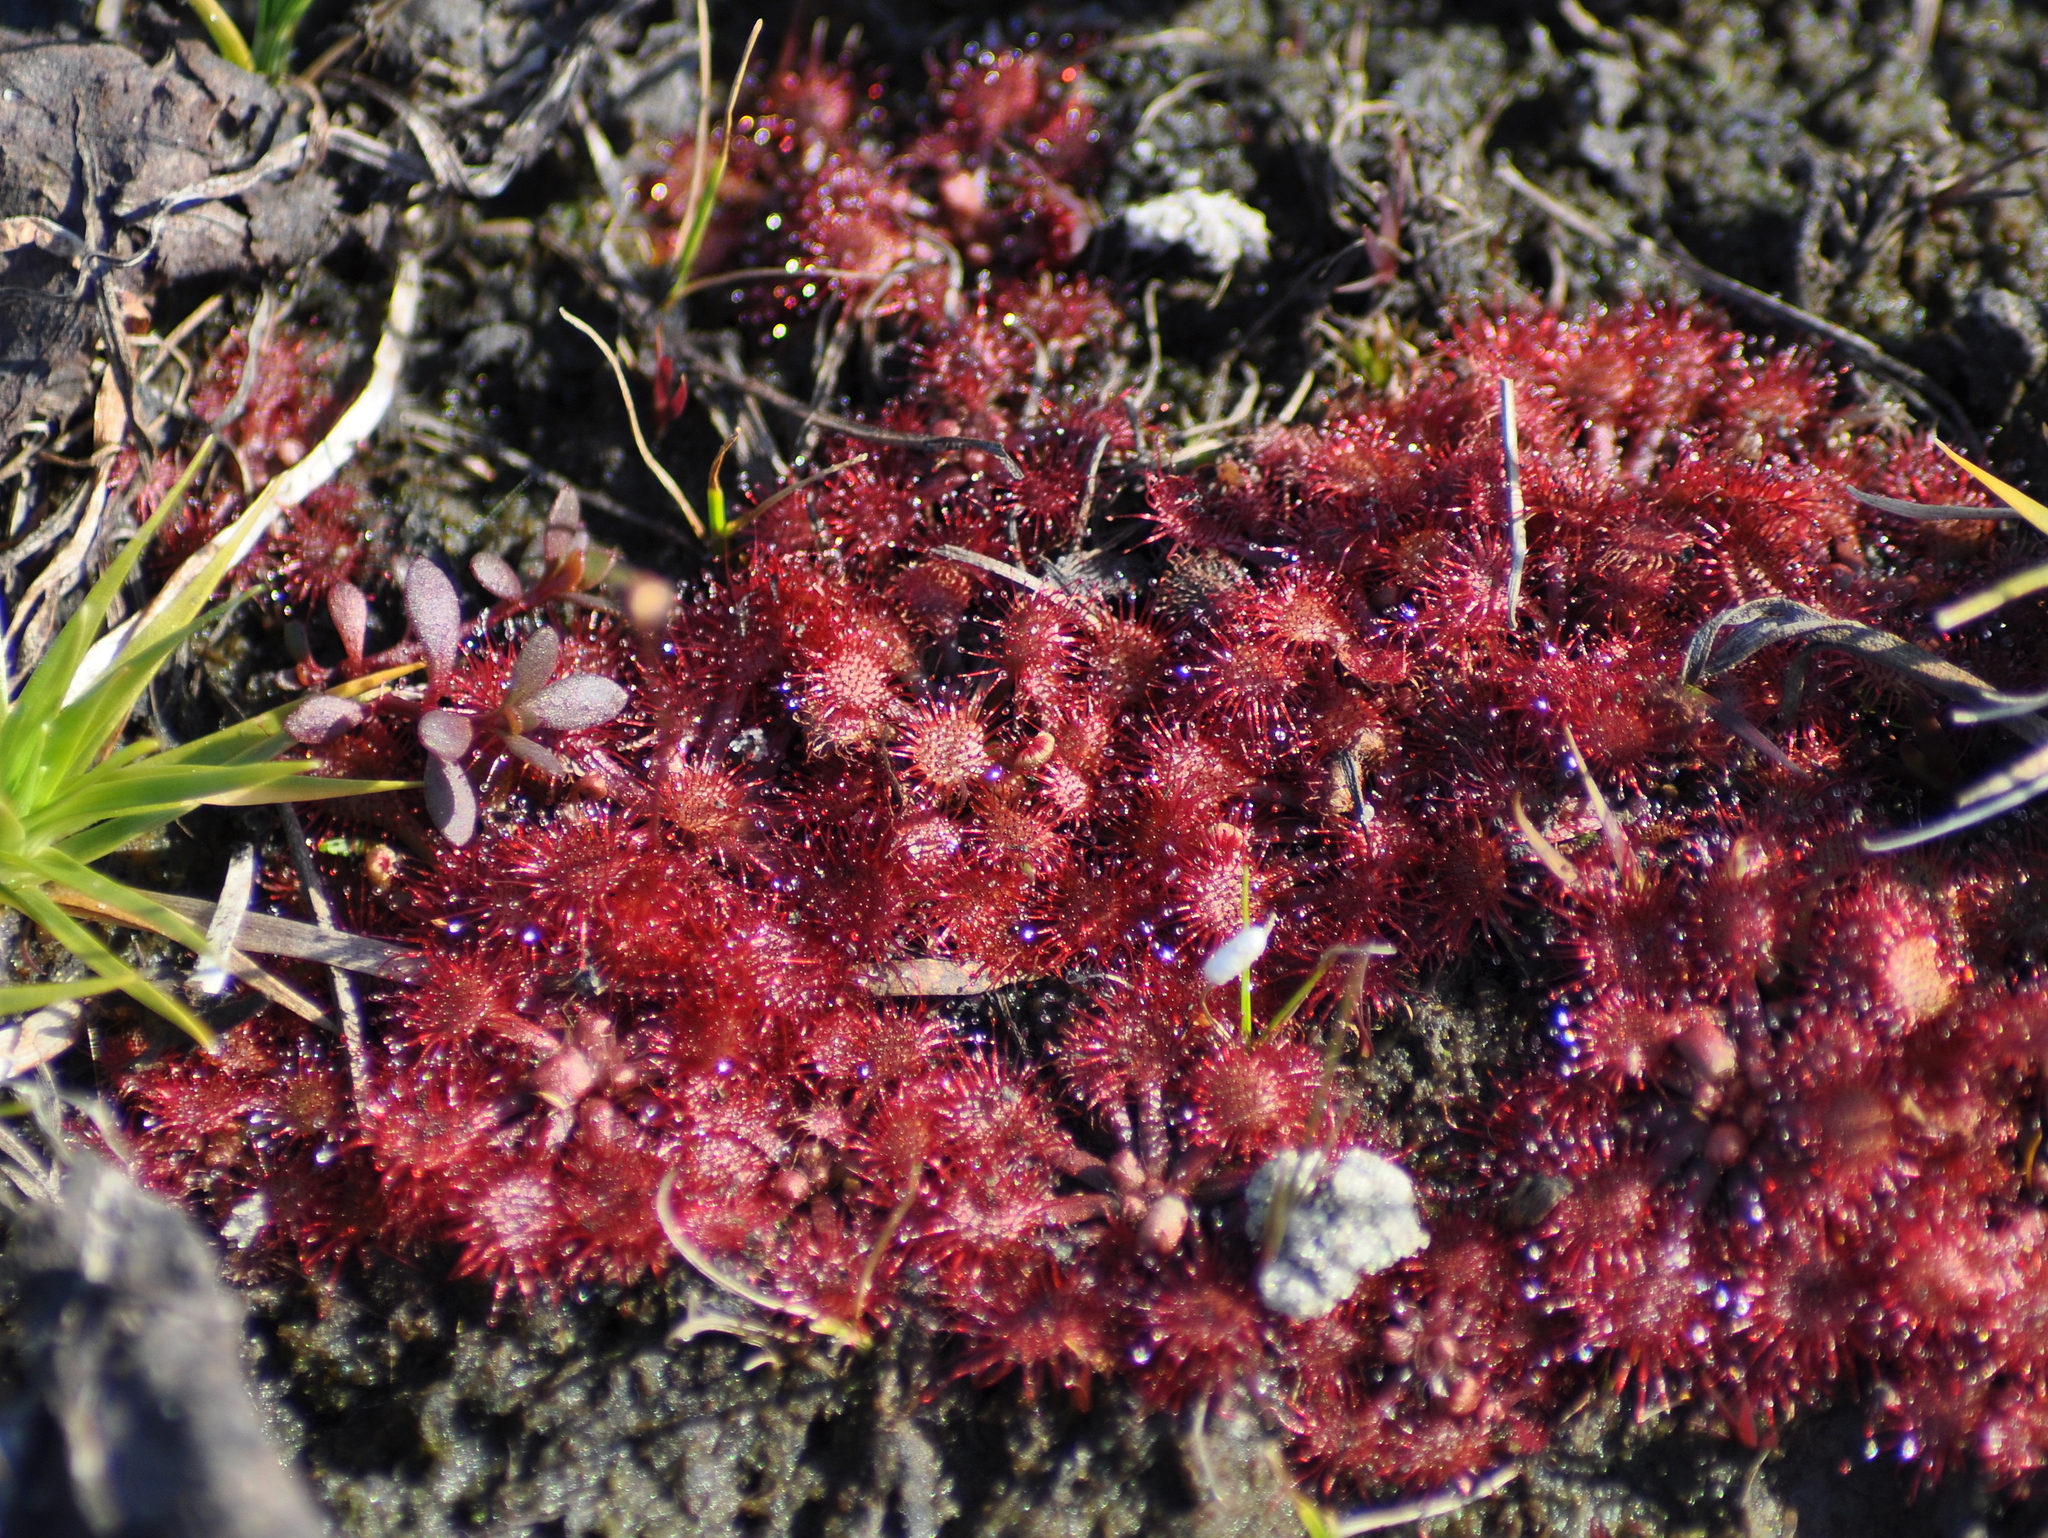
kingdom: Plantae
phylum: Tracheophyta
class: Magnoliopsida
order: Caryophyllales
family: Droseraceae
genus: Drosera
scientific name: Drosera brevifolia
